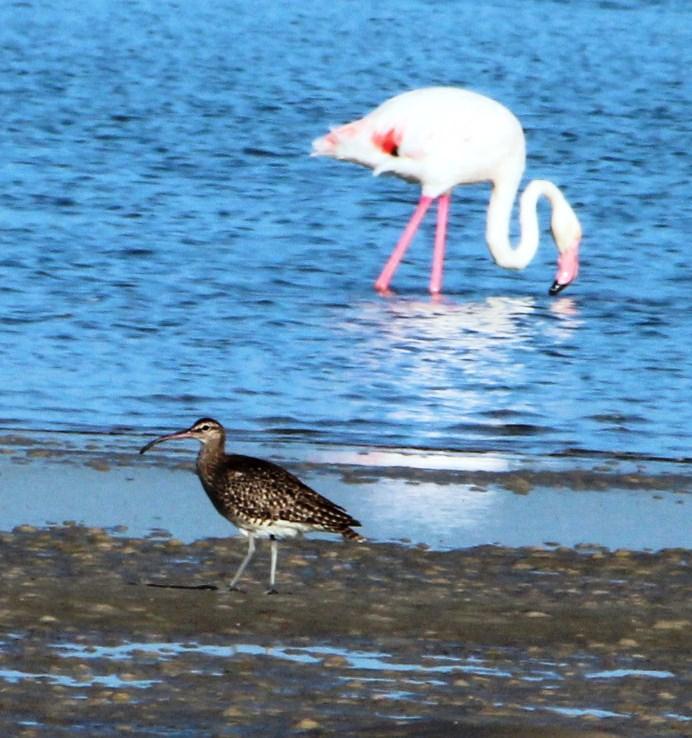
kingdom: Animalia
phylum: Chordata
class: Aves
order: Phoenicopteriformes
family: Phoenicopteridae
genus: Phoenicopterus
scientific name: Phoenicopterus roseus
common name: Greater flamingo
